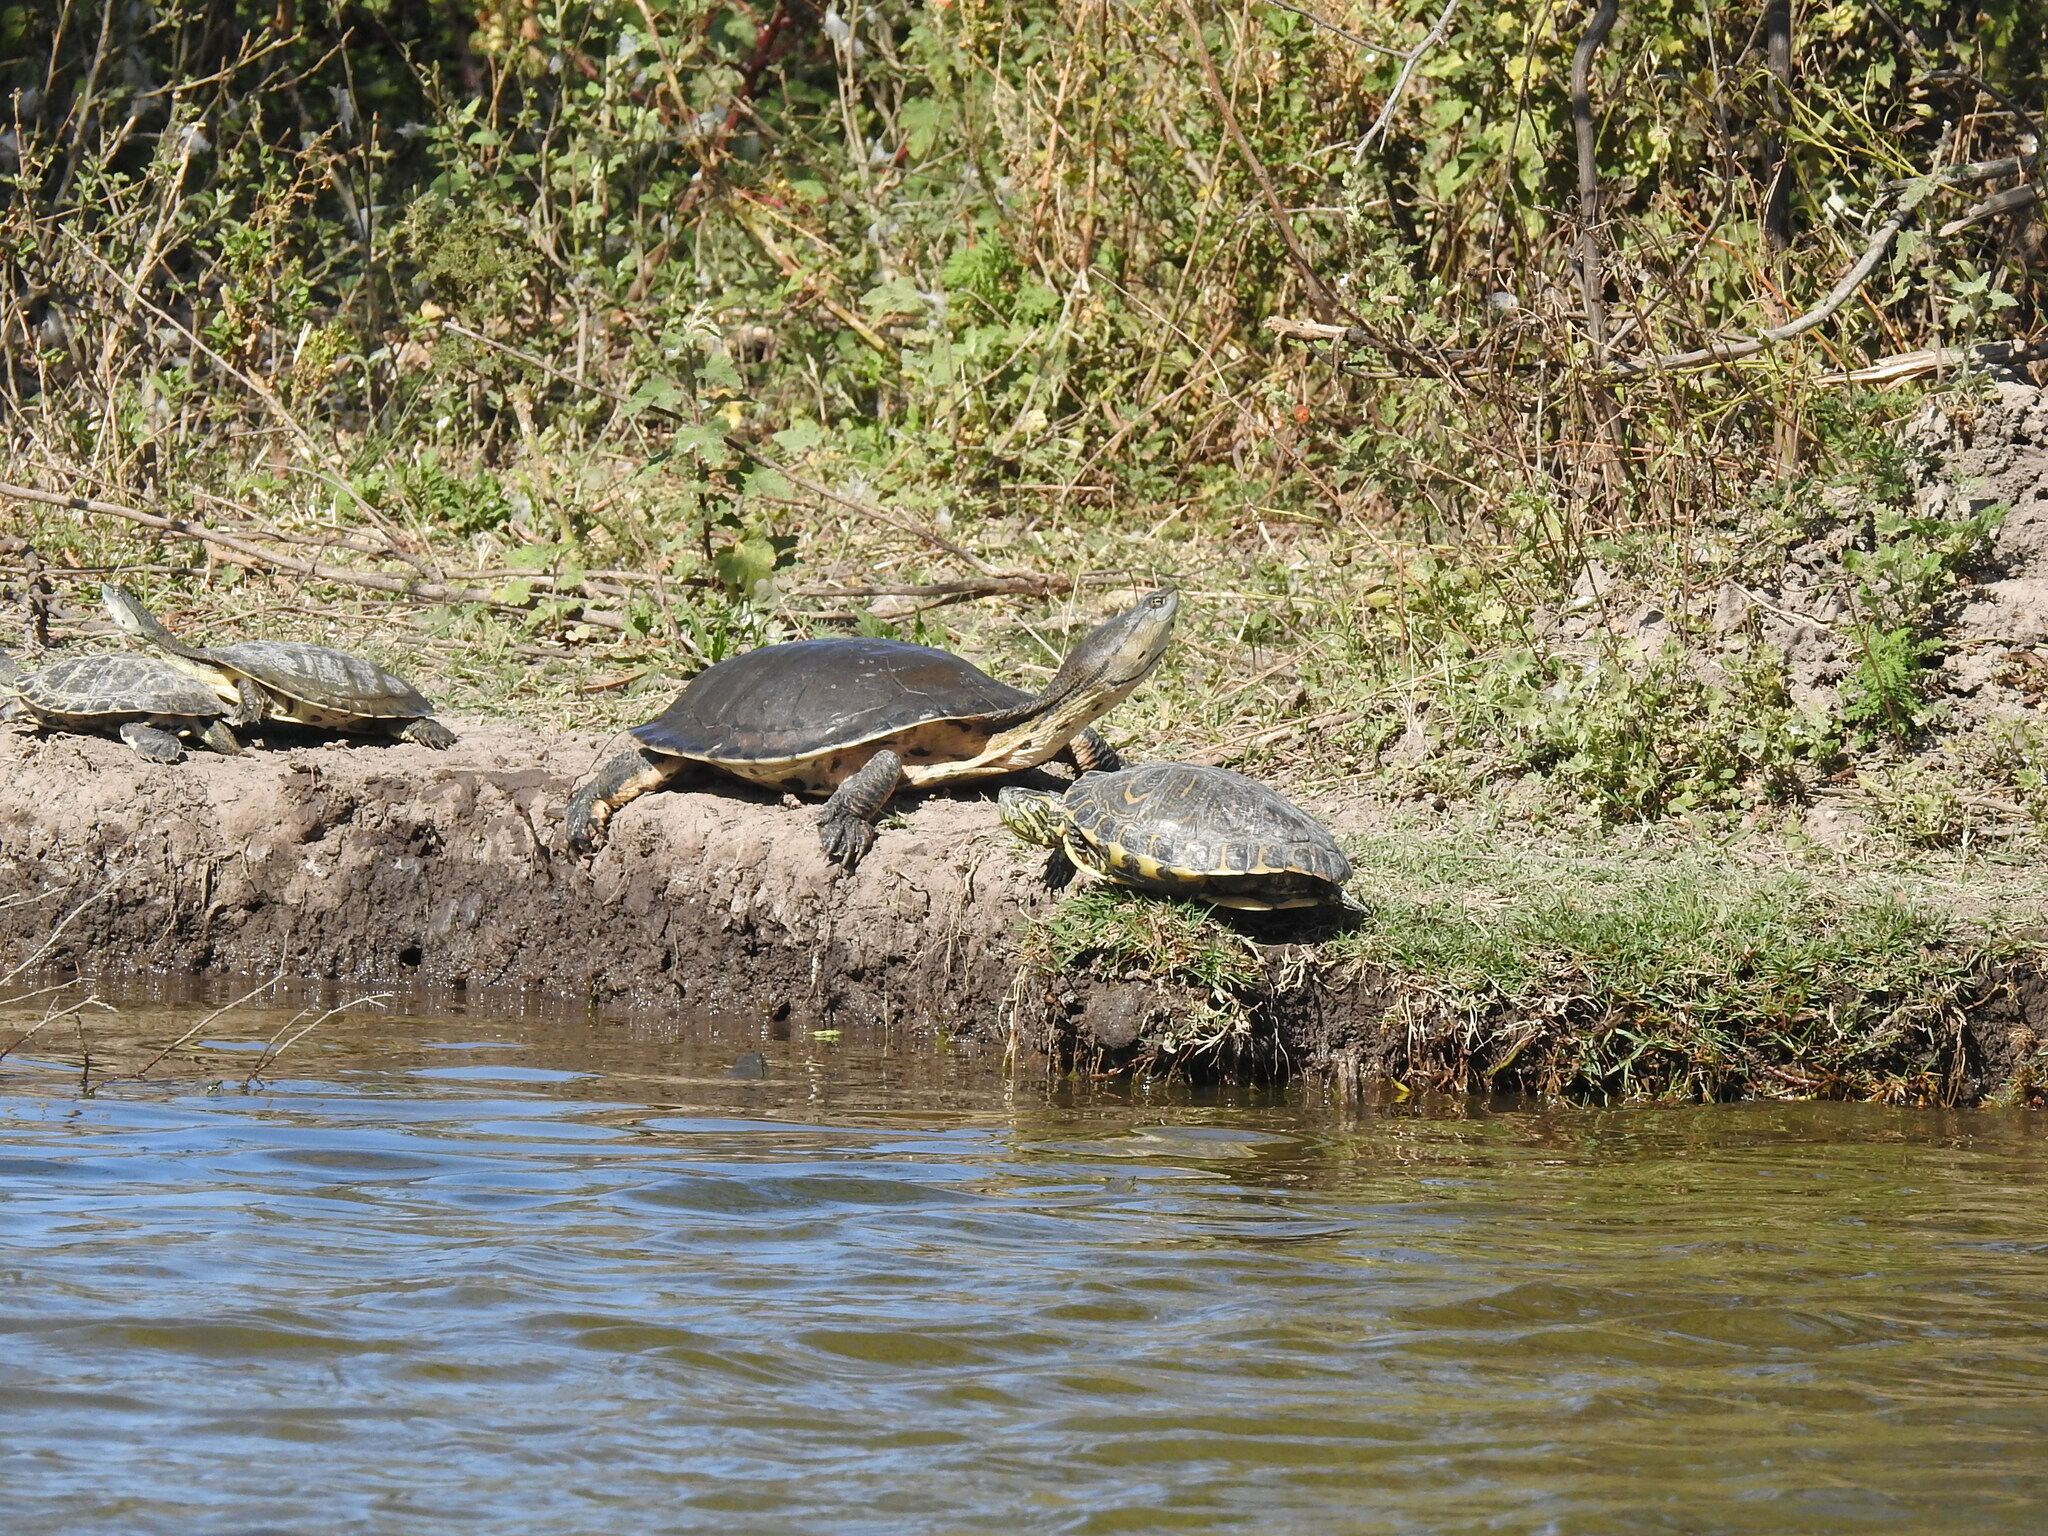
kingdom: Animalia
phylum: Chordata
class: Testudines
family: Chelidae
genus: Phrynops
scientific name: Phrynops hilarii
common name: Side-necked turtle of saint hillaire
